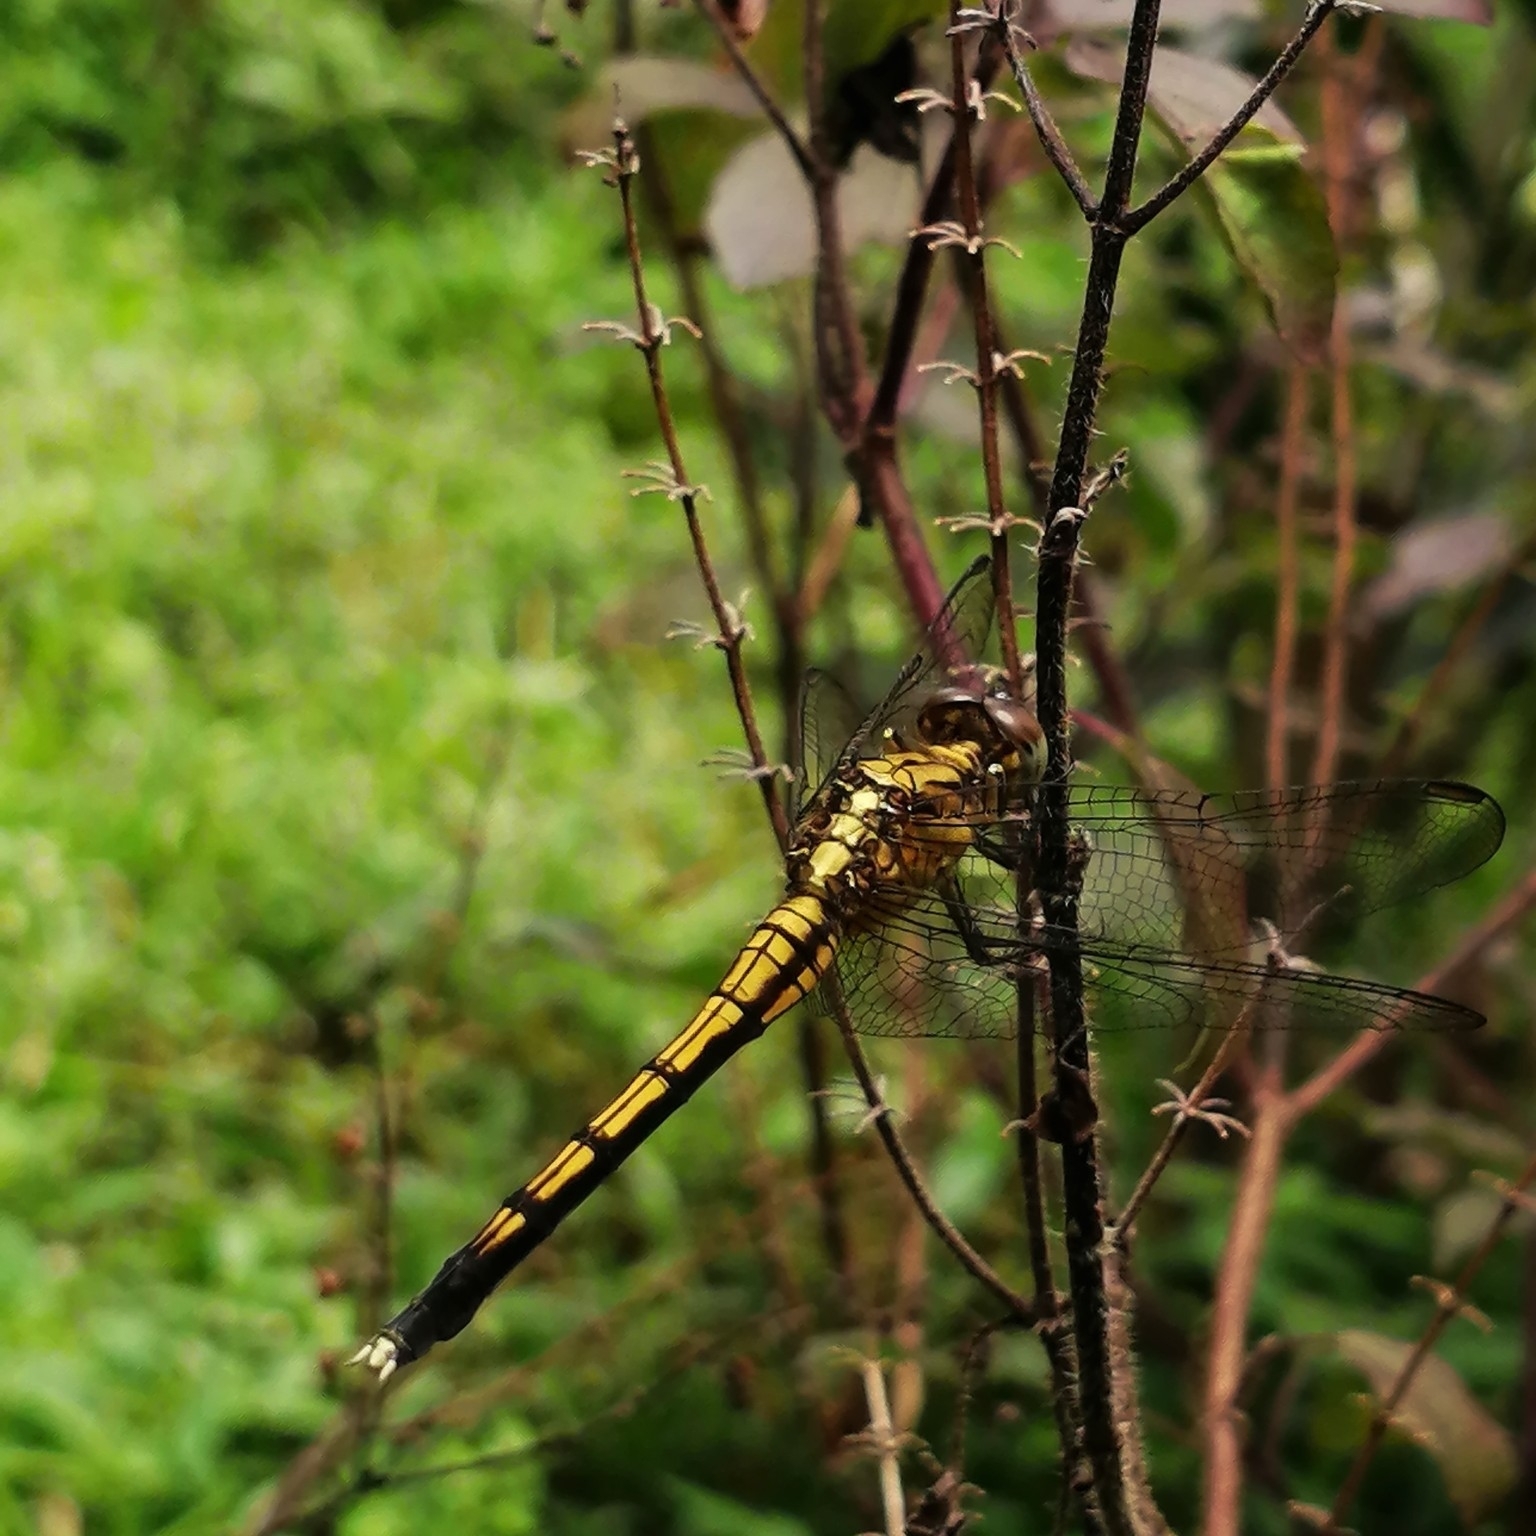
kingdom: Animalia
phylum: Arthropoda
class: Insecta
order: Odonata
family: Libellulidae
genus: Orthetrum
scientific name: Orthetrum luzonicum
